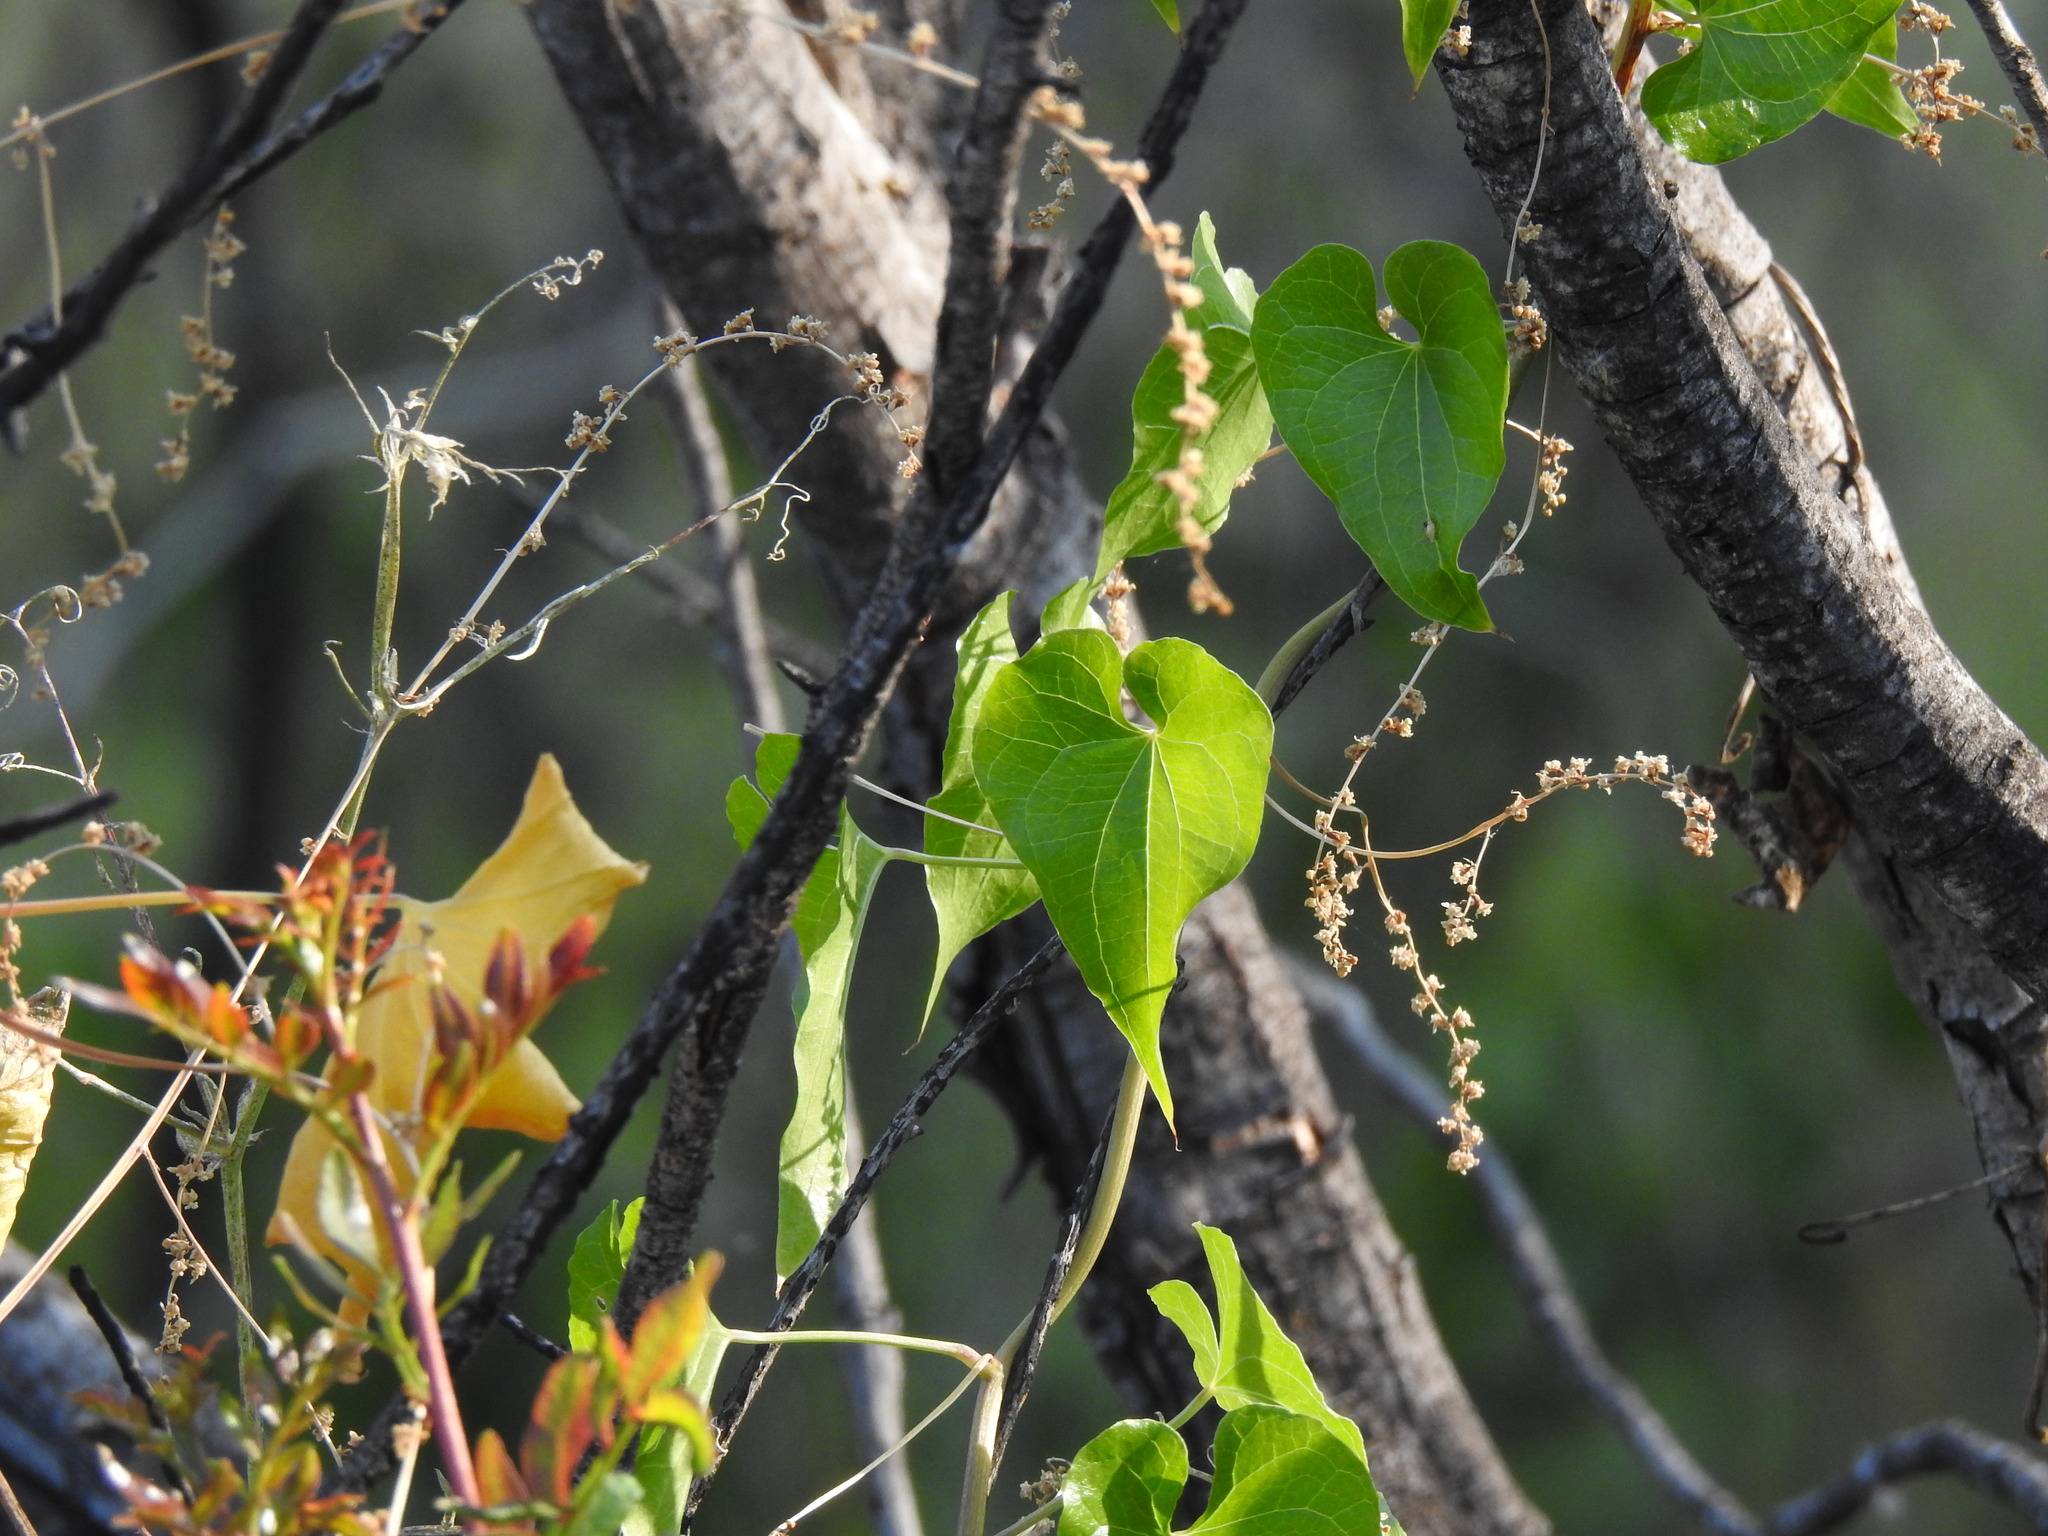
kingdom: Plantae
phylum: Tracheophyta
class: Liliopsida
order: Dioscoreales
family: Dioscoreaceae
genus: Dioscorea
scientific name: Dioscorea communis
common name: Black-bindweed
